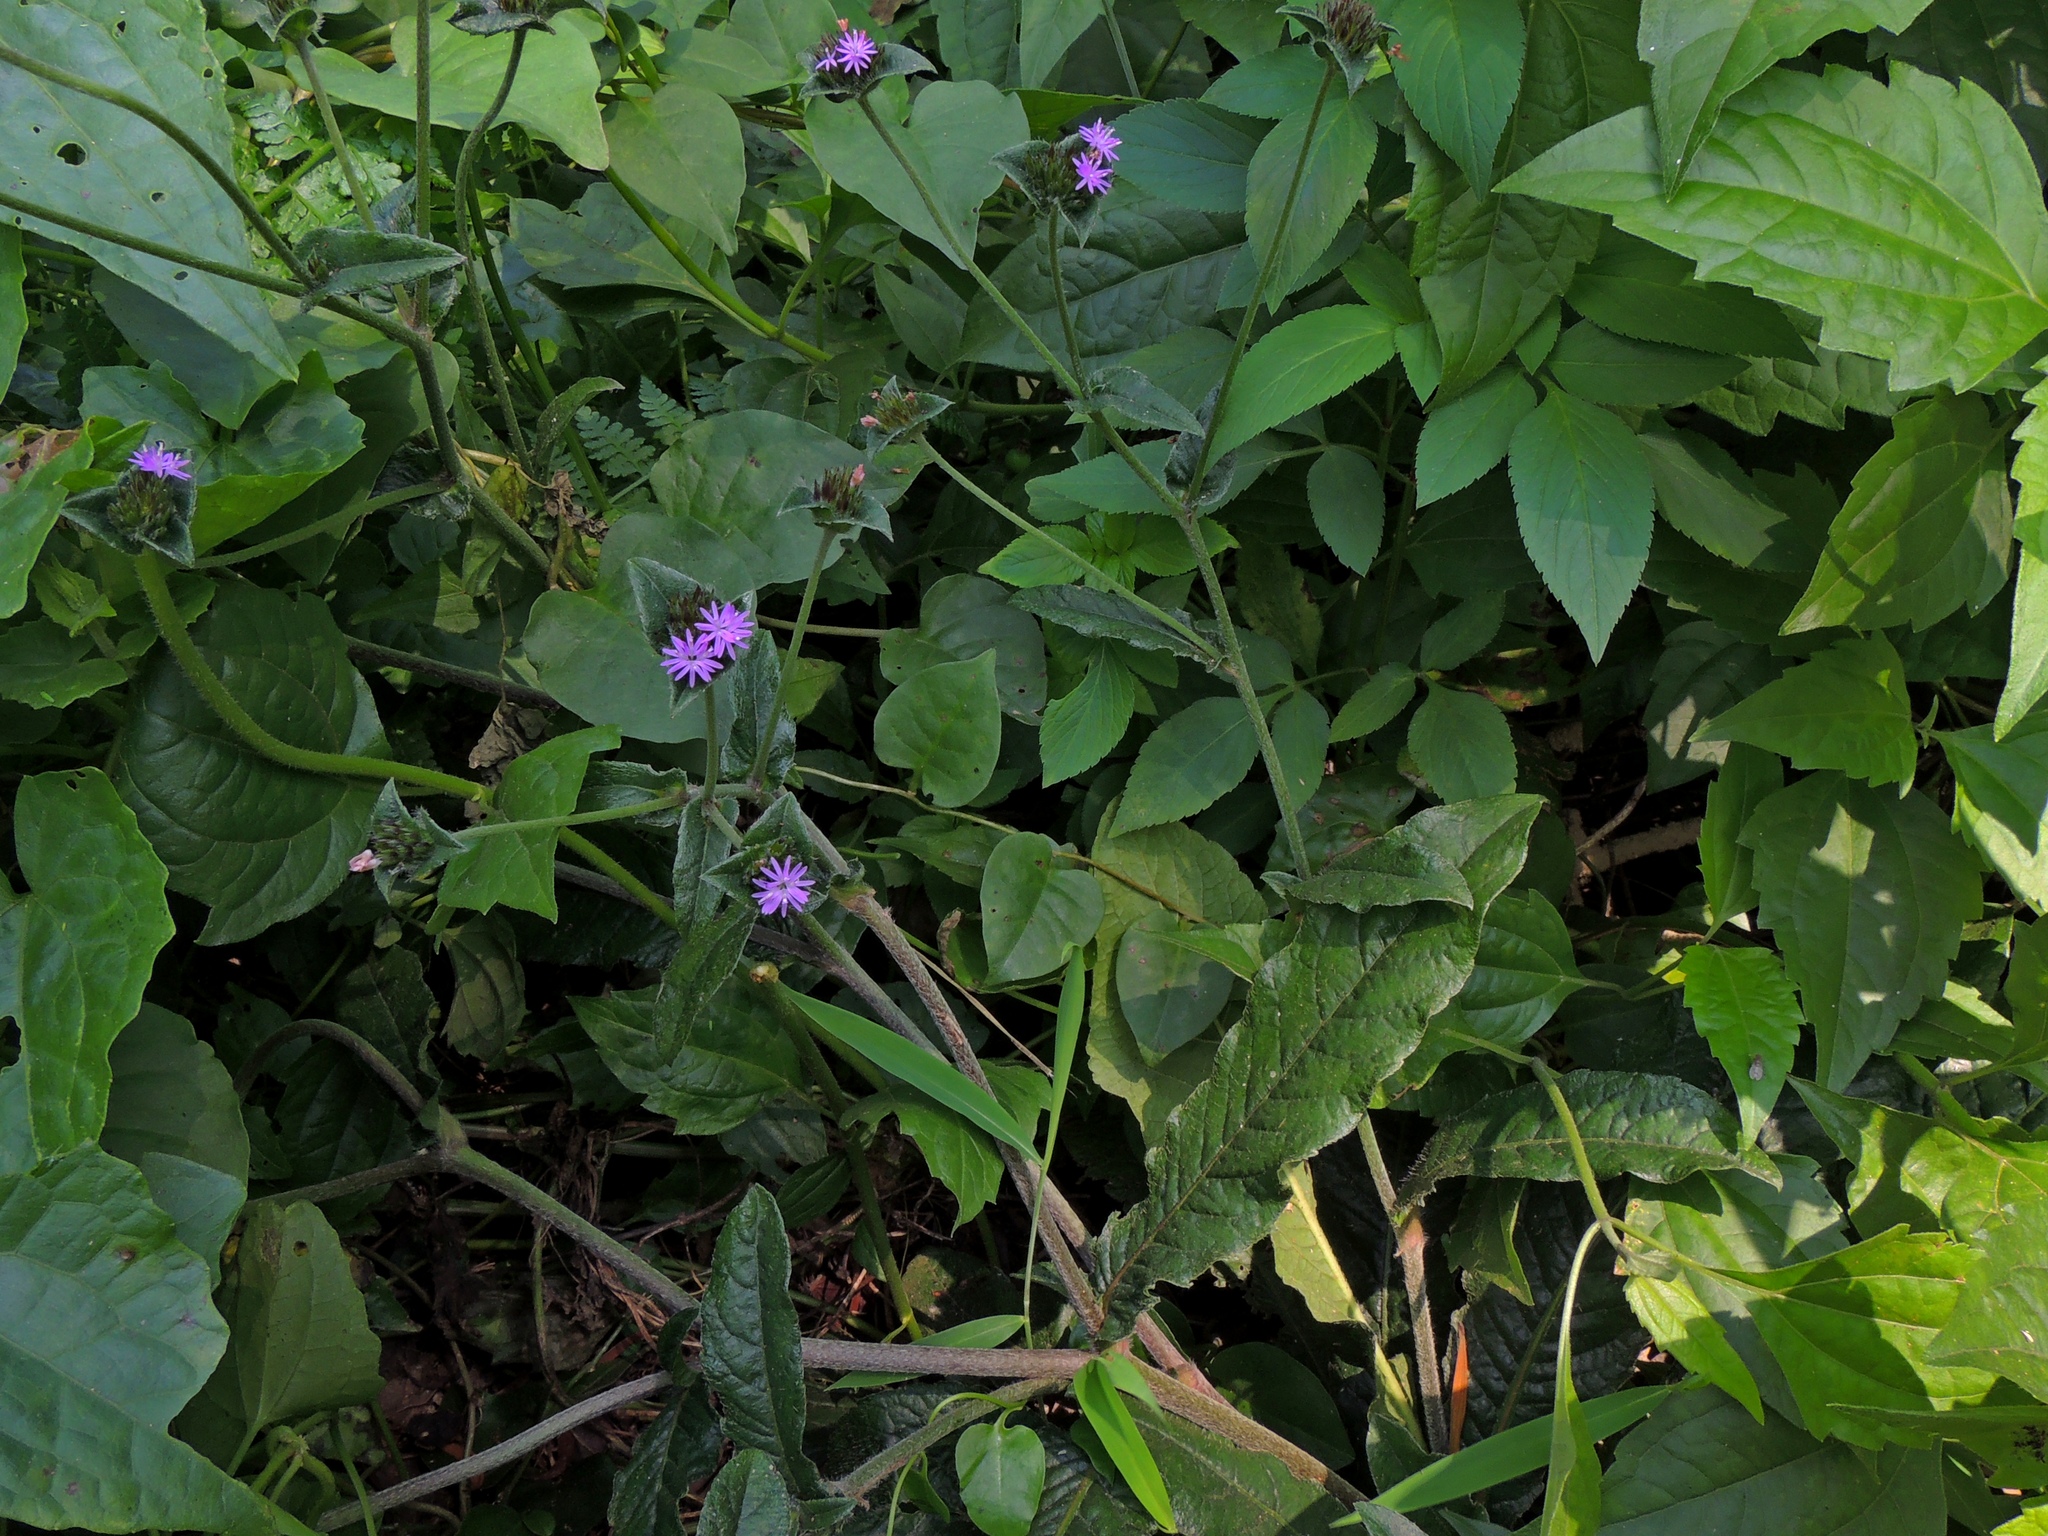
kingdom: Plantae
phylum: Tracheophyta
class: Magnoliopsida
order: Asterales
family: Asteraceae
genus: Elephantopus
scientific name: Elephantopus scaber
